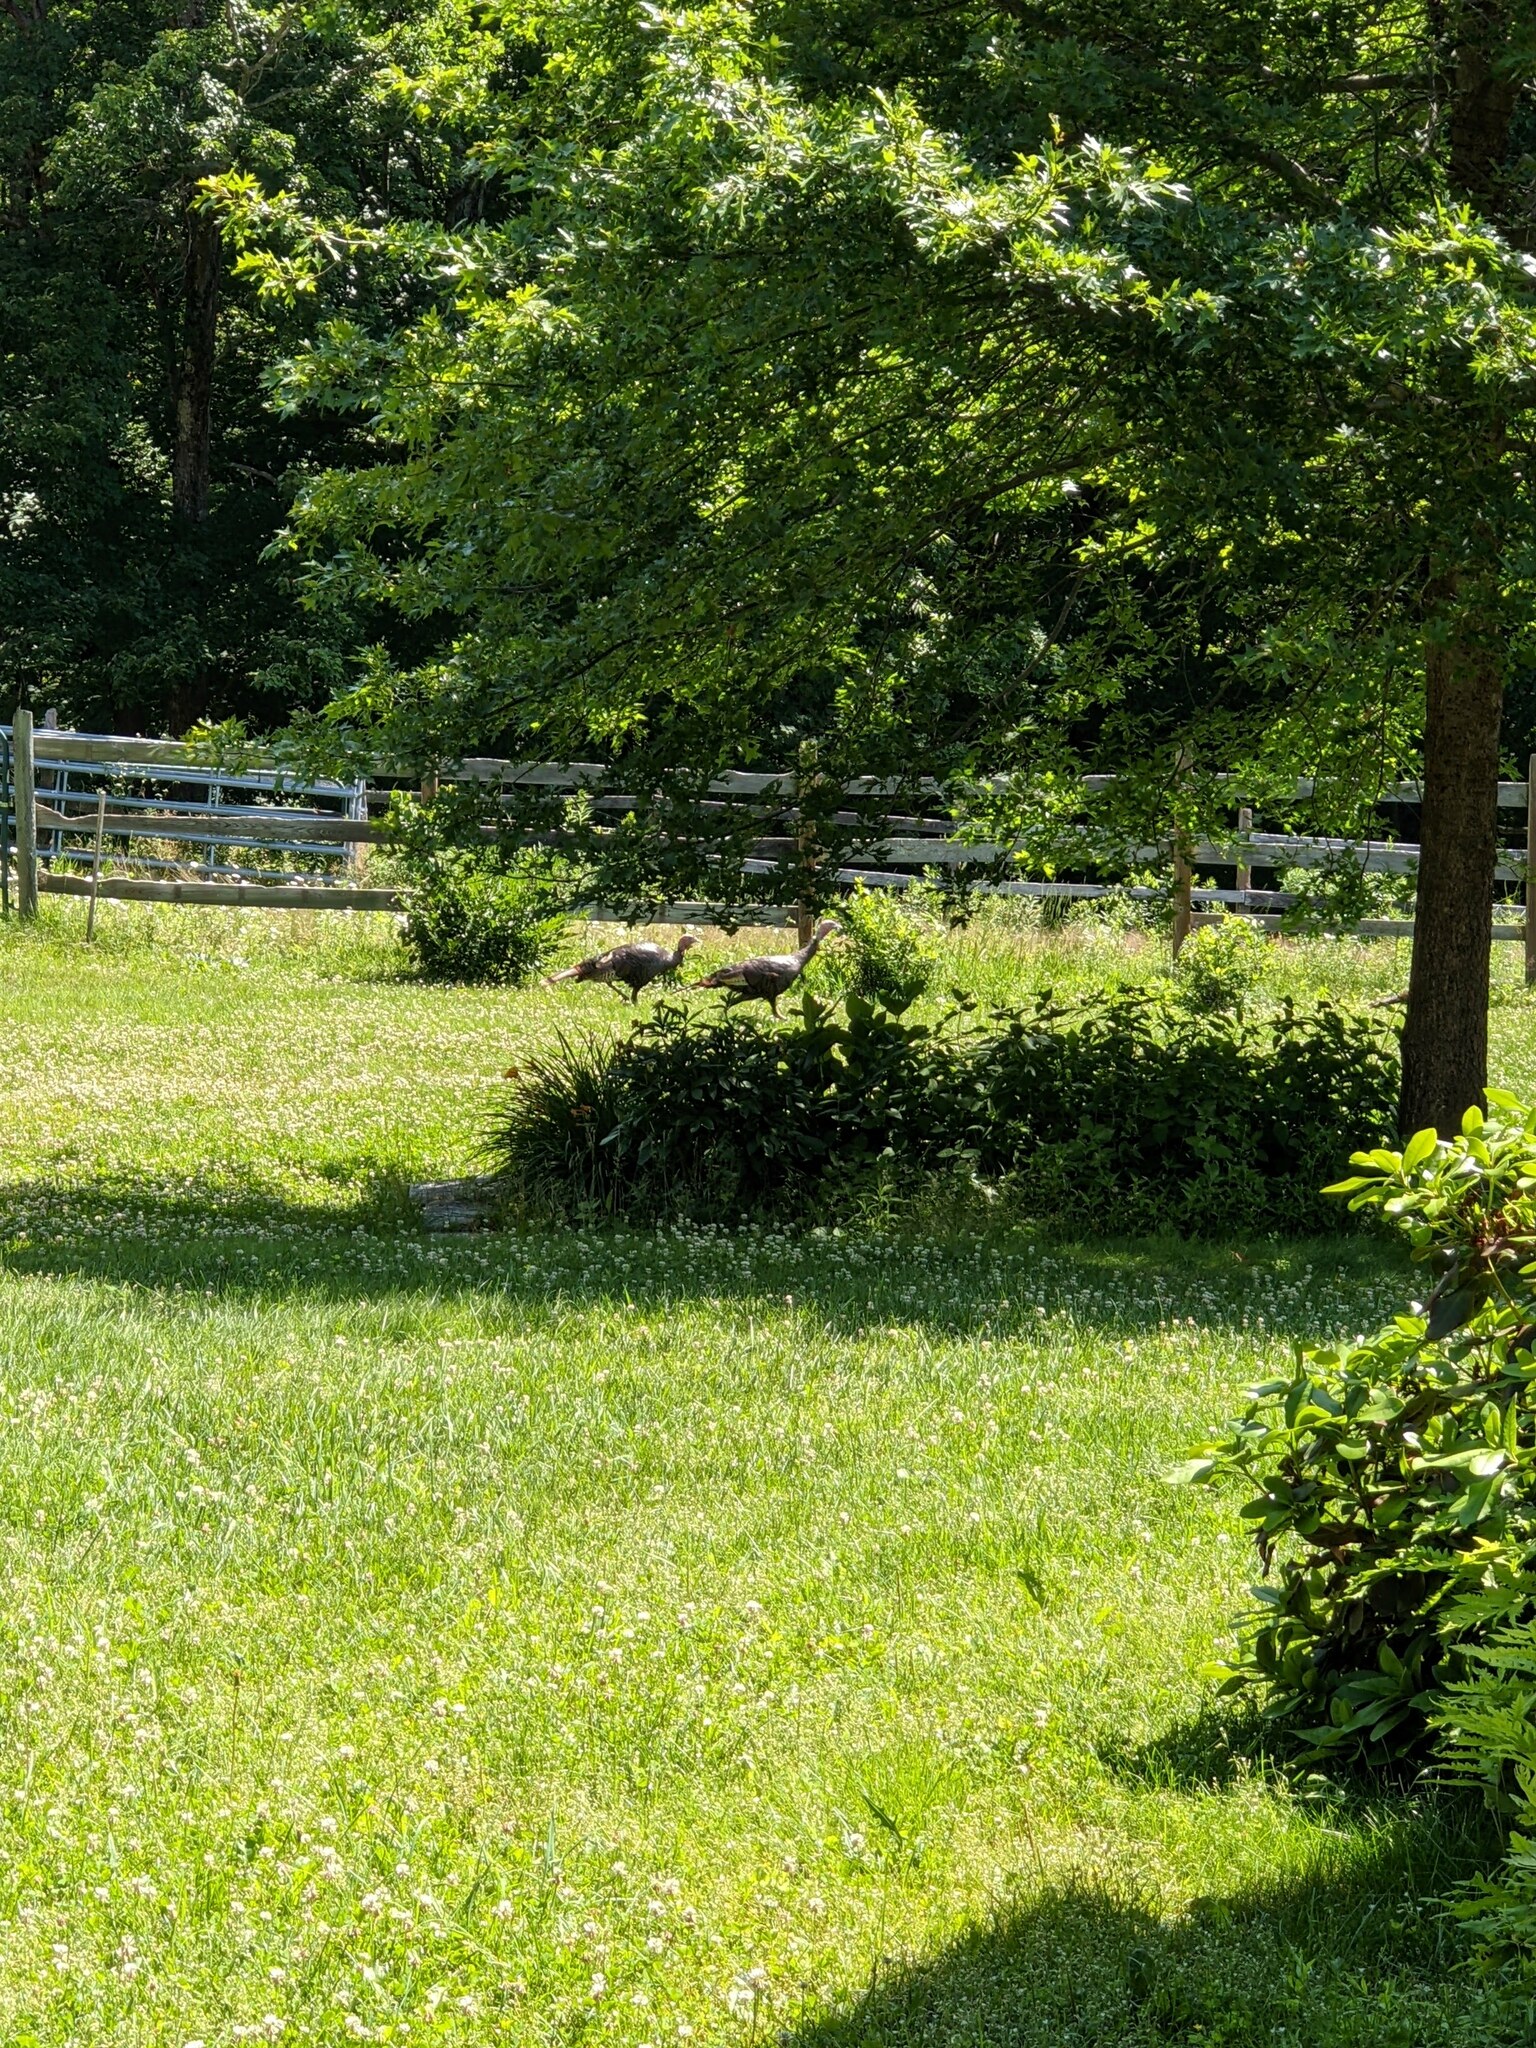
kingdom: Animalia
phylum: Chordata
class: Aves
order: Galliformes
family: Phasianidae
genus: Meleagris
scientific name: Meleagris gallopavo
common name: Wild turkey
